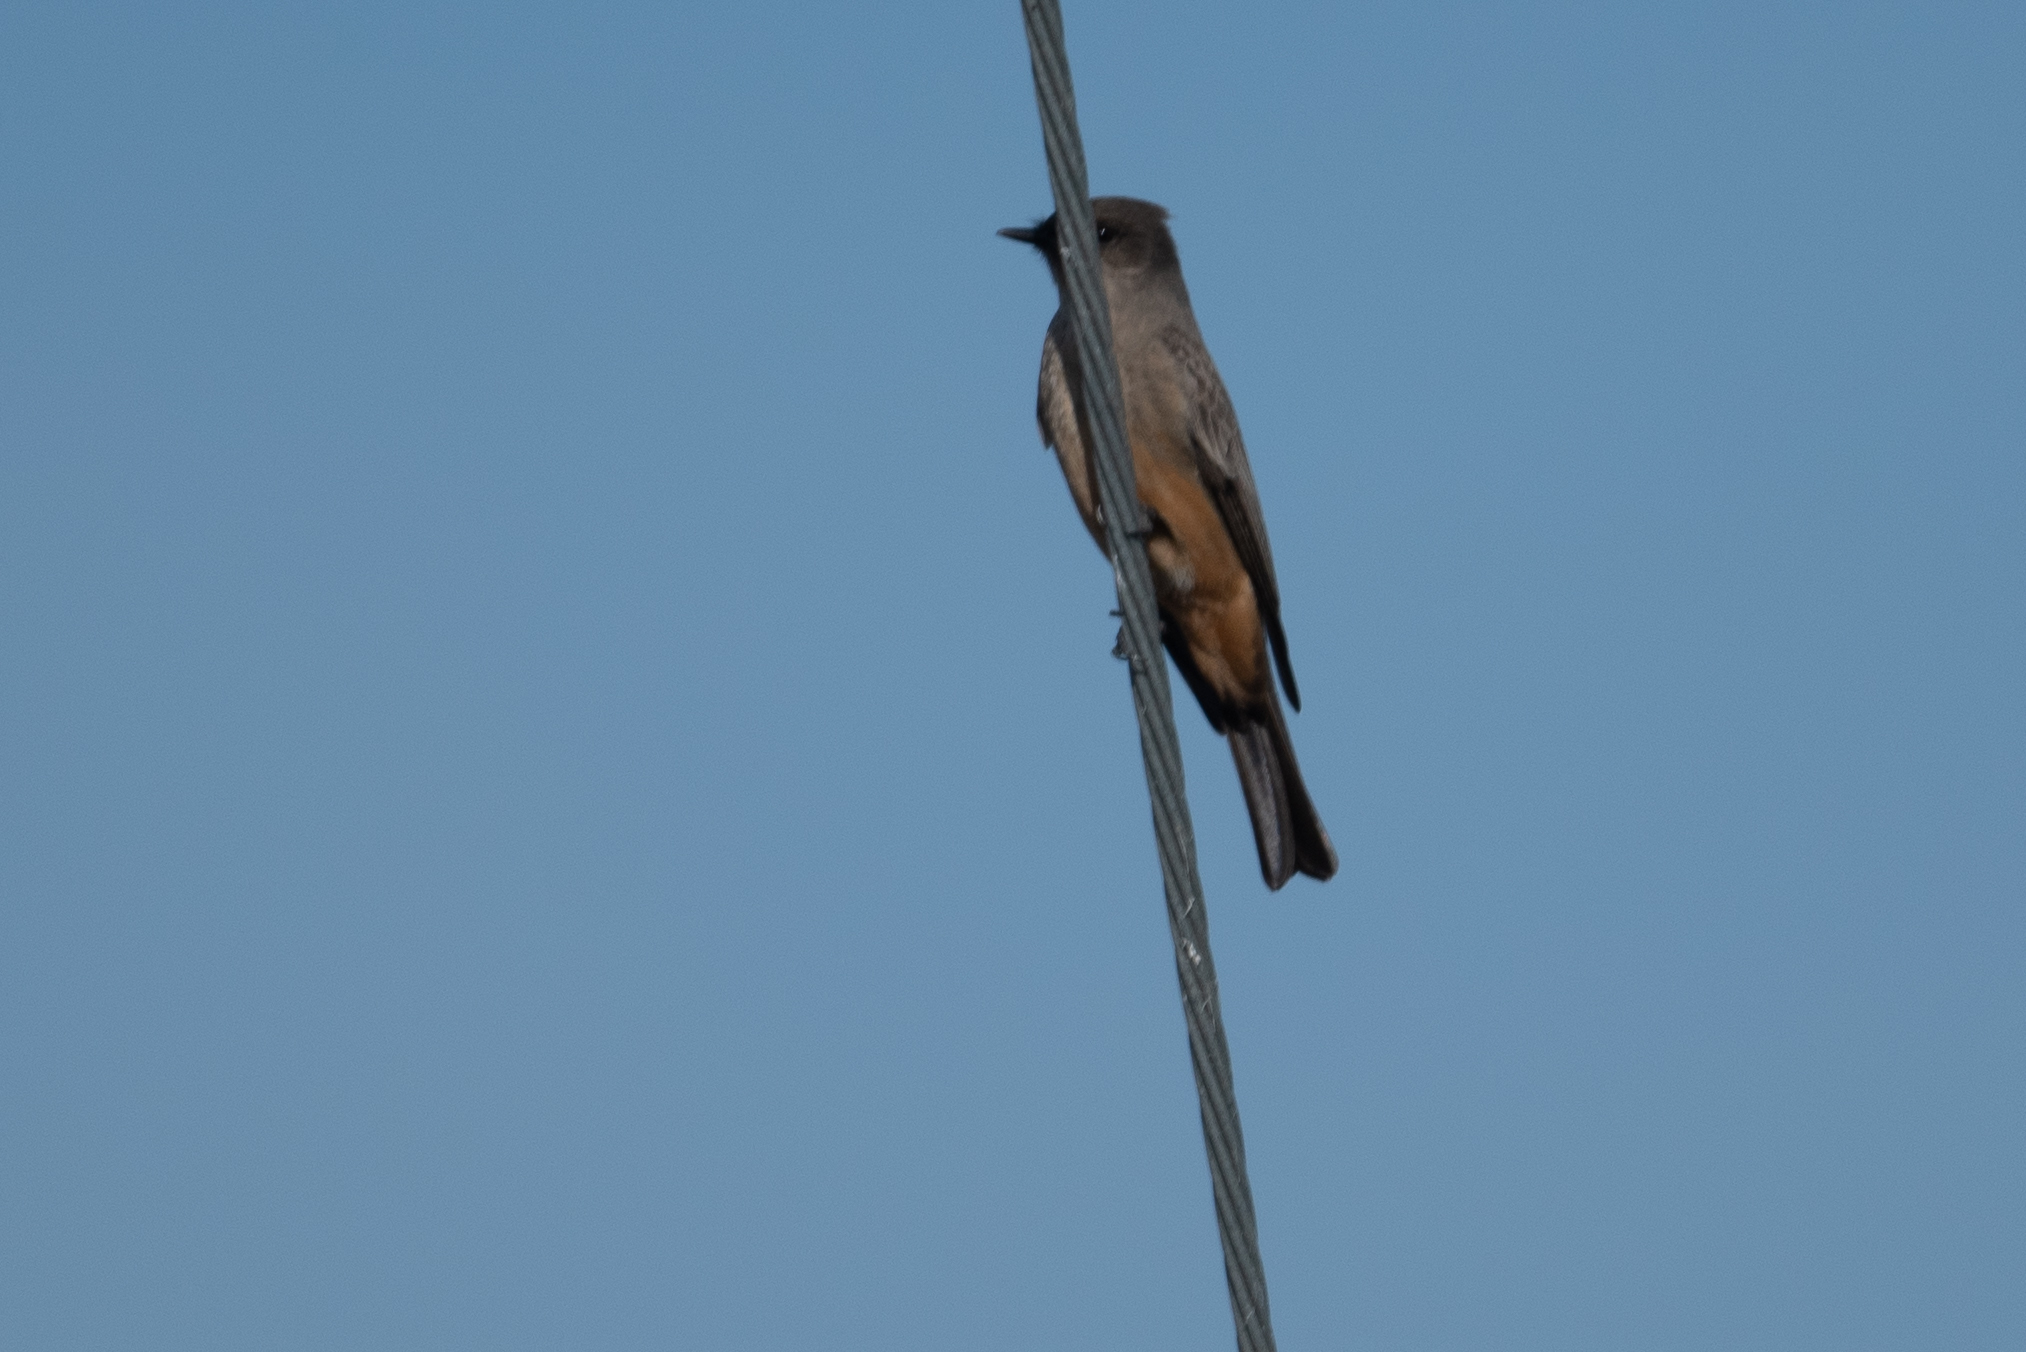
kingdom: Animalia
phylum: Chordata
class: Aves
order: Passeriformes
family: Tyrannidae
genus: Sayornis
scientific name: Sayornis saya
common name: Say's phoebe
